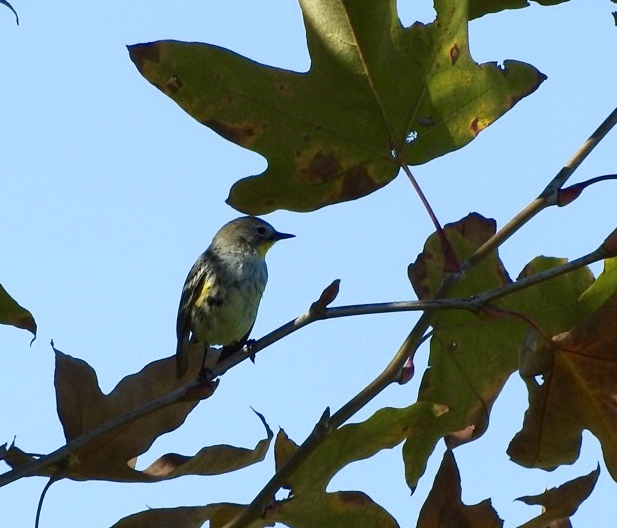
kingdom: Animalia
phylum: Chordata
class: Aves
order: Passeriformes
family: Parulidae
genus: Setophaga
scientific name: Setophaga auduboni
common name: Audubon's warbler
